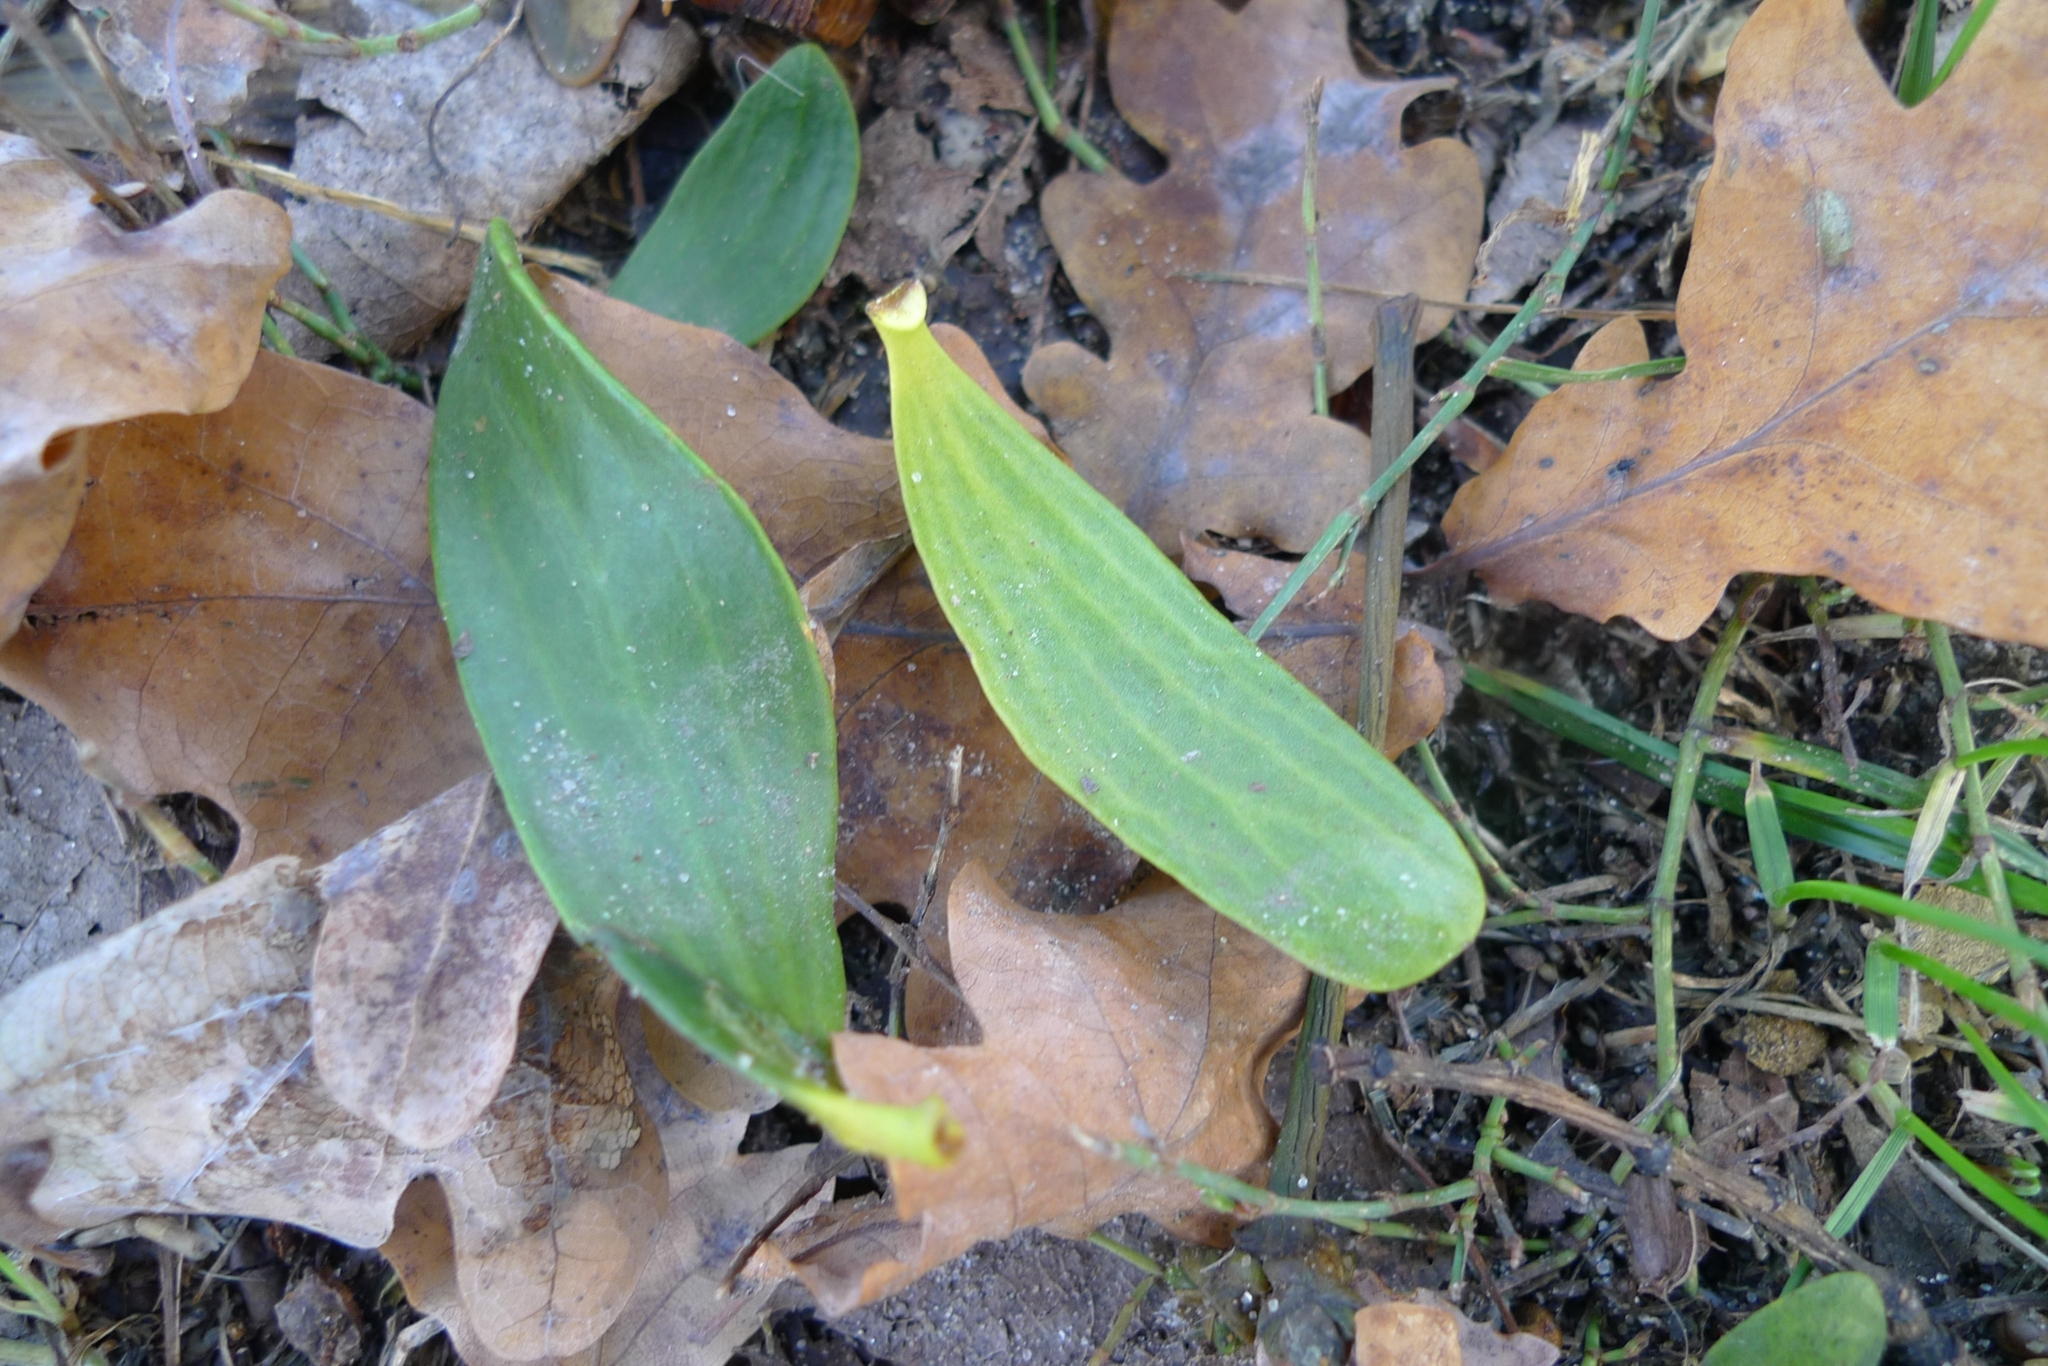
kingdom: Plantae
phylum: Tracheophyta
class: Magnoliopsida
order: Santalales
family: Viscaceae
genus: Viscum
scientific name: Viscum album
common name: Mistletoe
